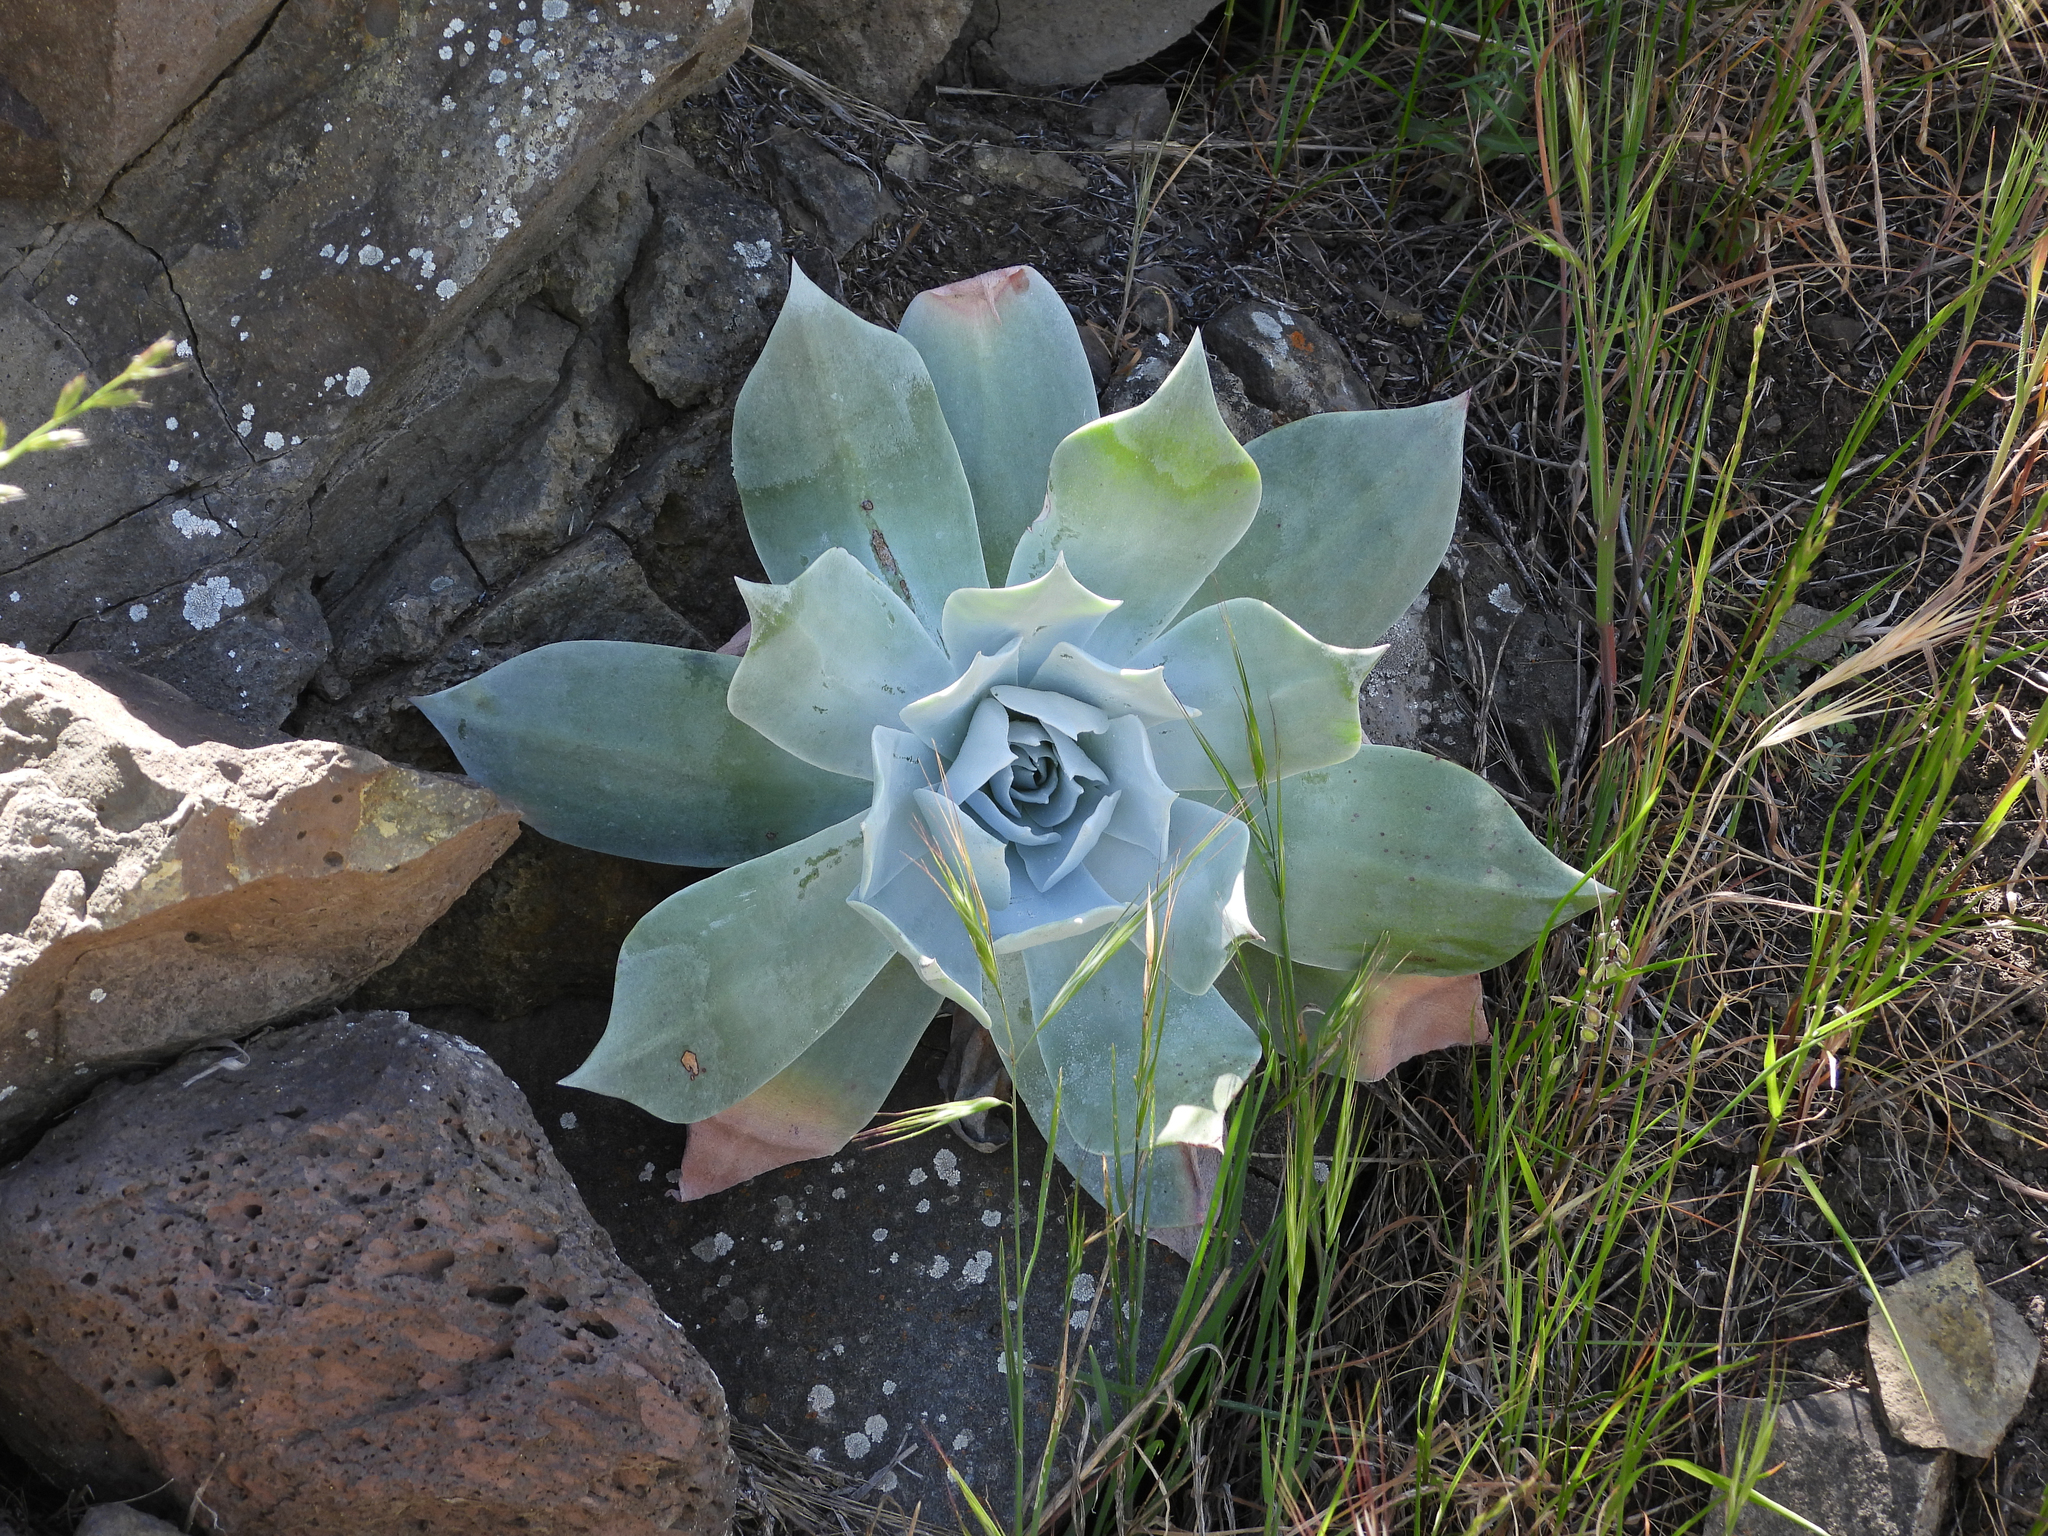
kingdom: Plantae
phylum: Tracheophyta
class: Magnoliopsida
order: Saxifragales
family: Crassulaceae
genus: Dudleya
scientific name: Dudleya pulverulenta
